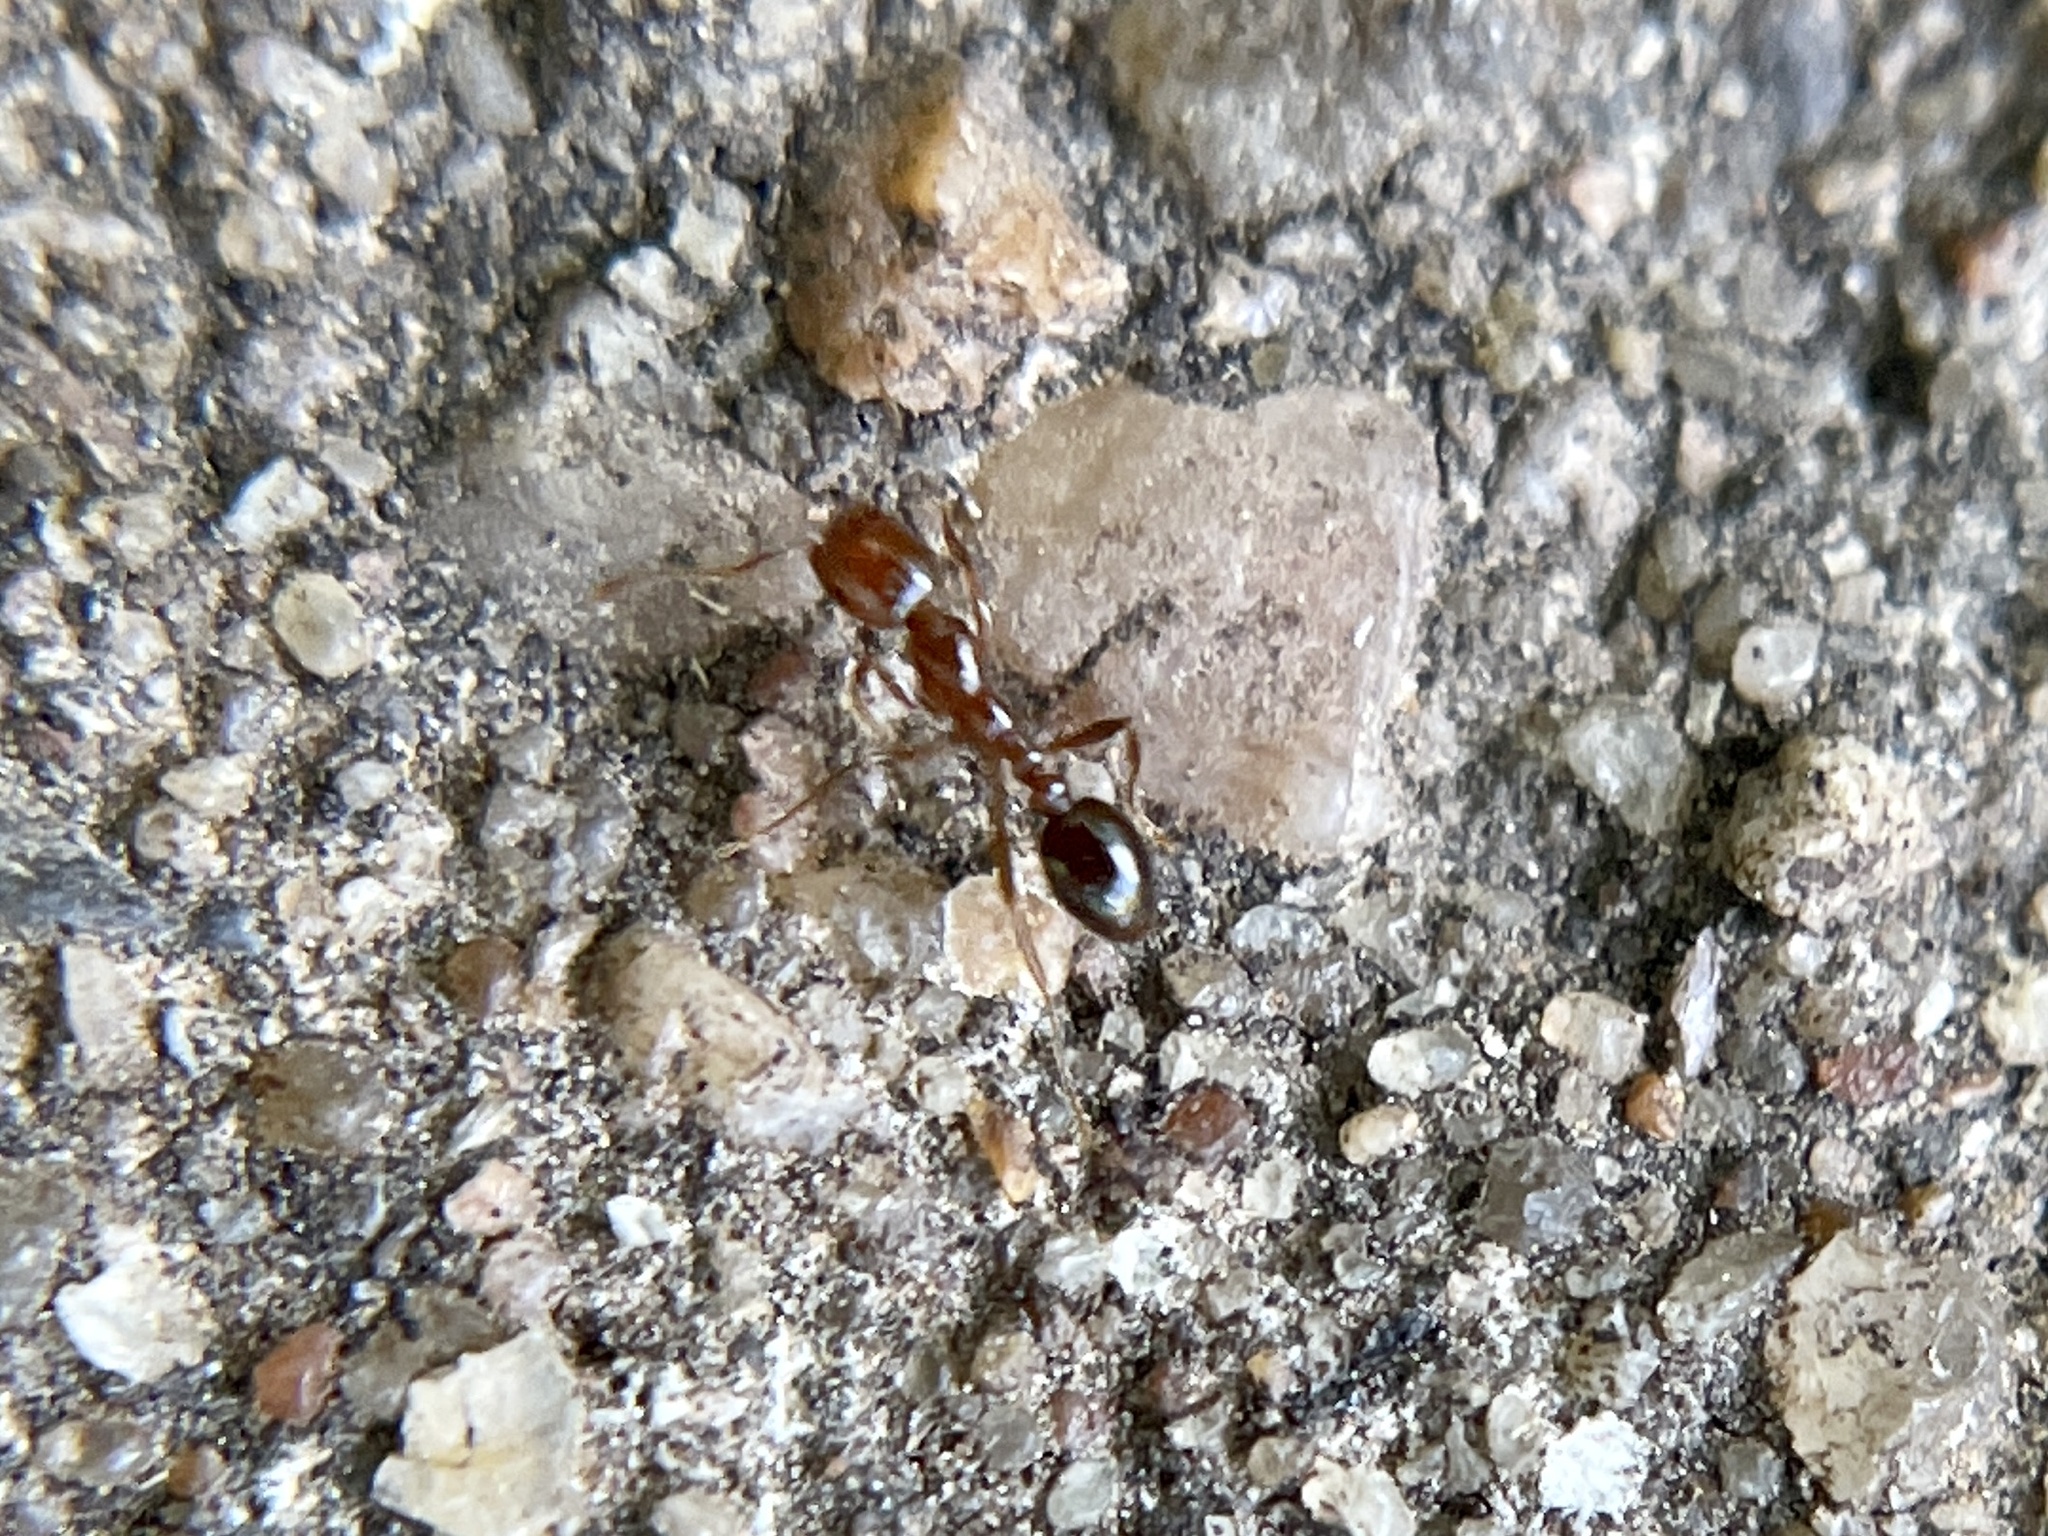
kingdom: Animalia
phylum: Arthropoda
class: Insecta
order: Hymenoptera
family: Formicidae
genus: Solenopsis
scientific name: Solenopsis invicta
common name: Red imported fire ant
